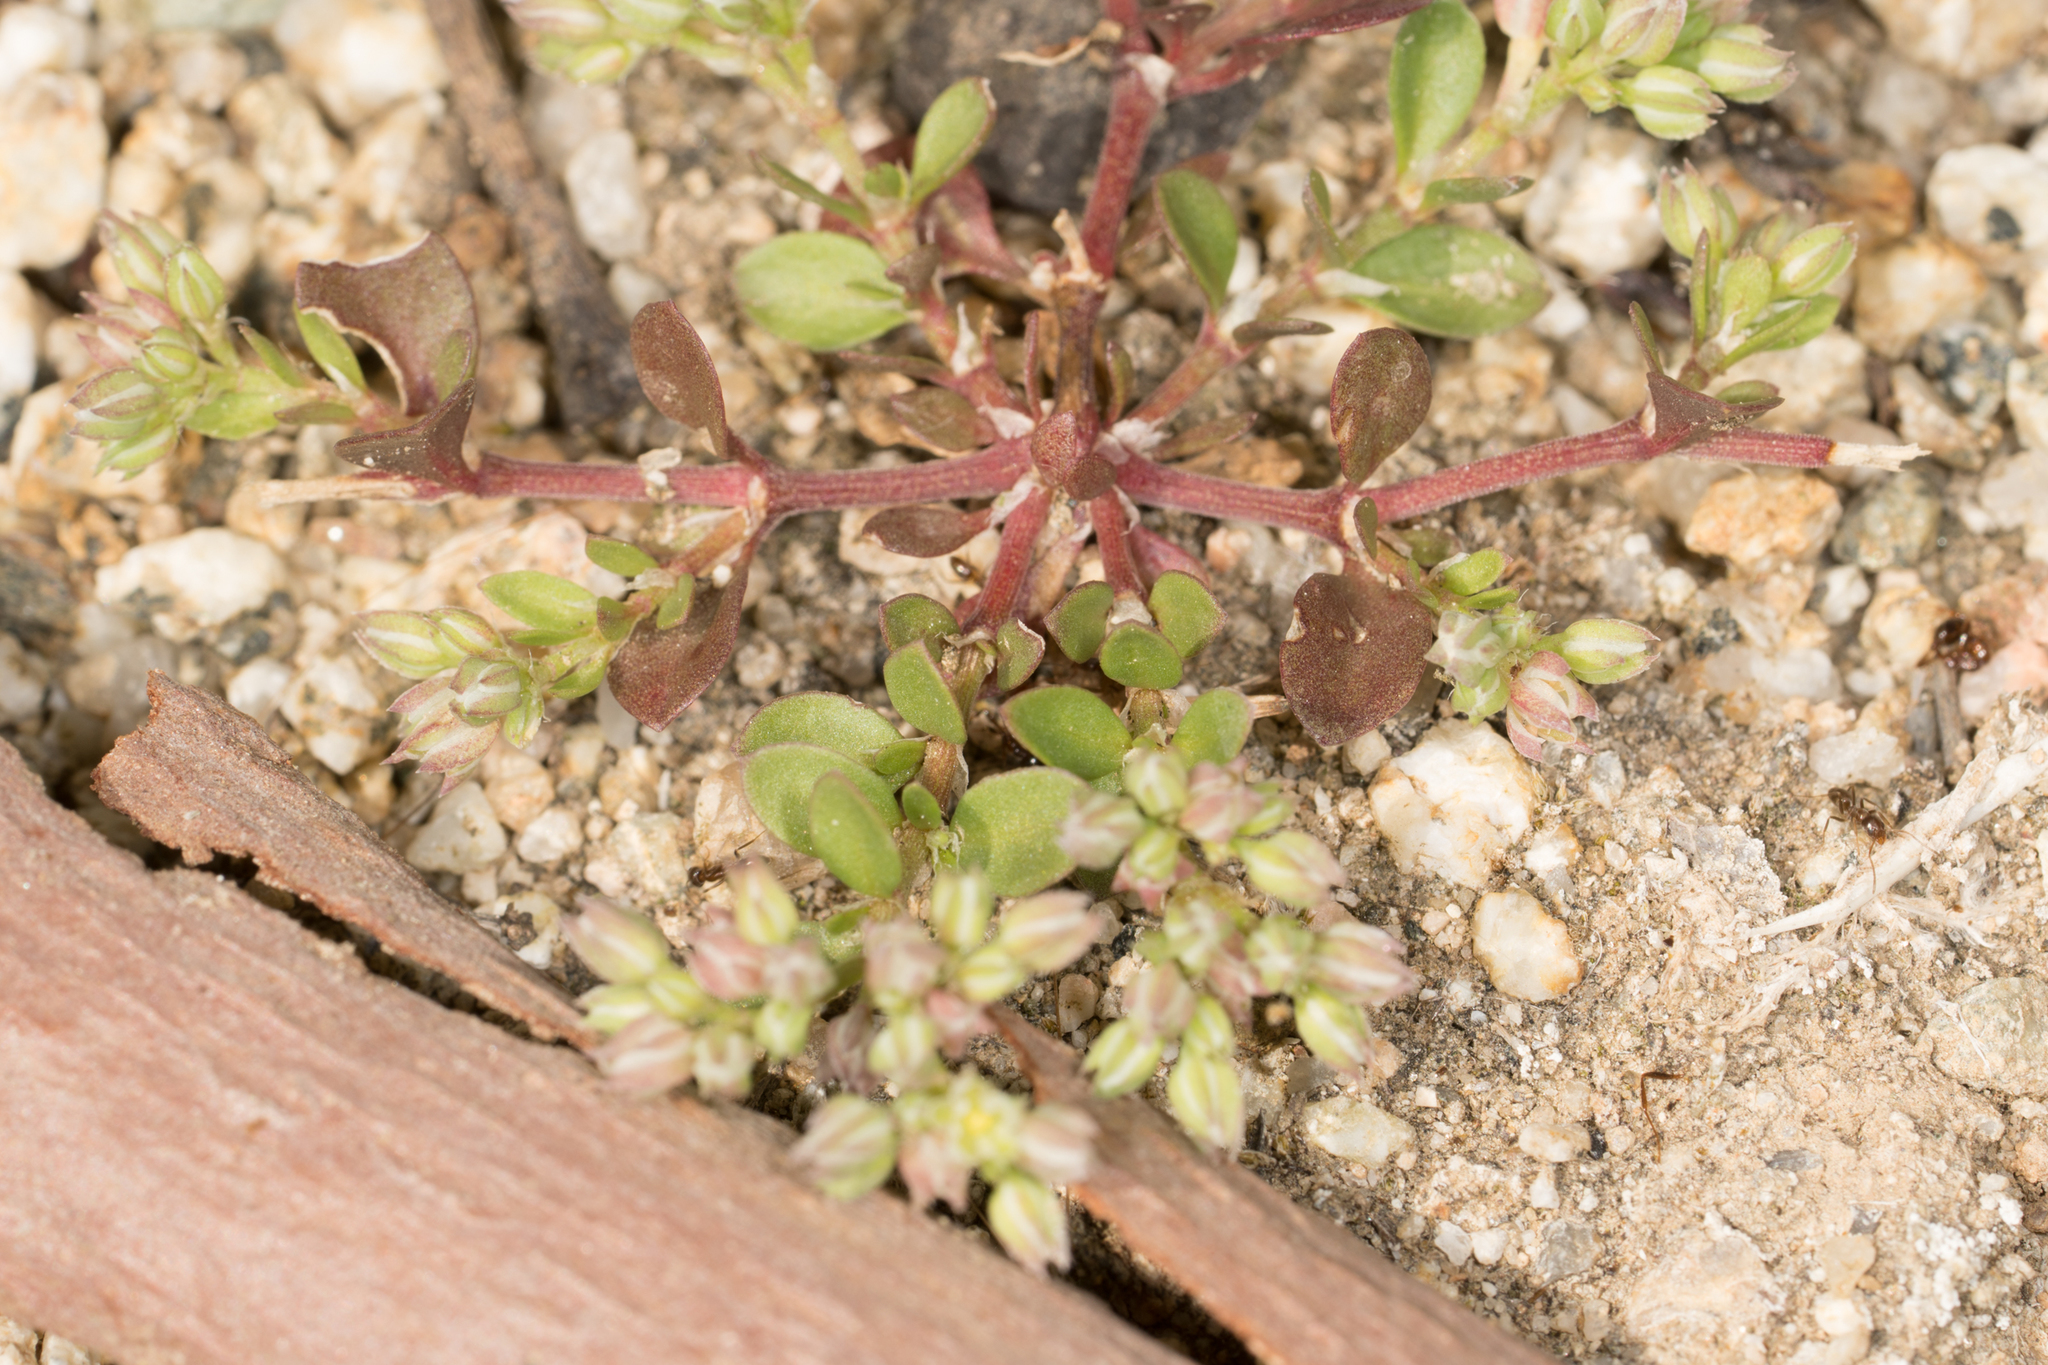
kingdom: Plantae
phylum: Tracheophyta
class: Magnoliopsida
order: Caryophyllales
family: Caryophyllaceae
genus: Polycarpon
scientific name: Polycarpon tetraphyllum
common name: Four-leaved all-seed
